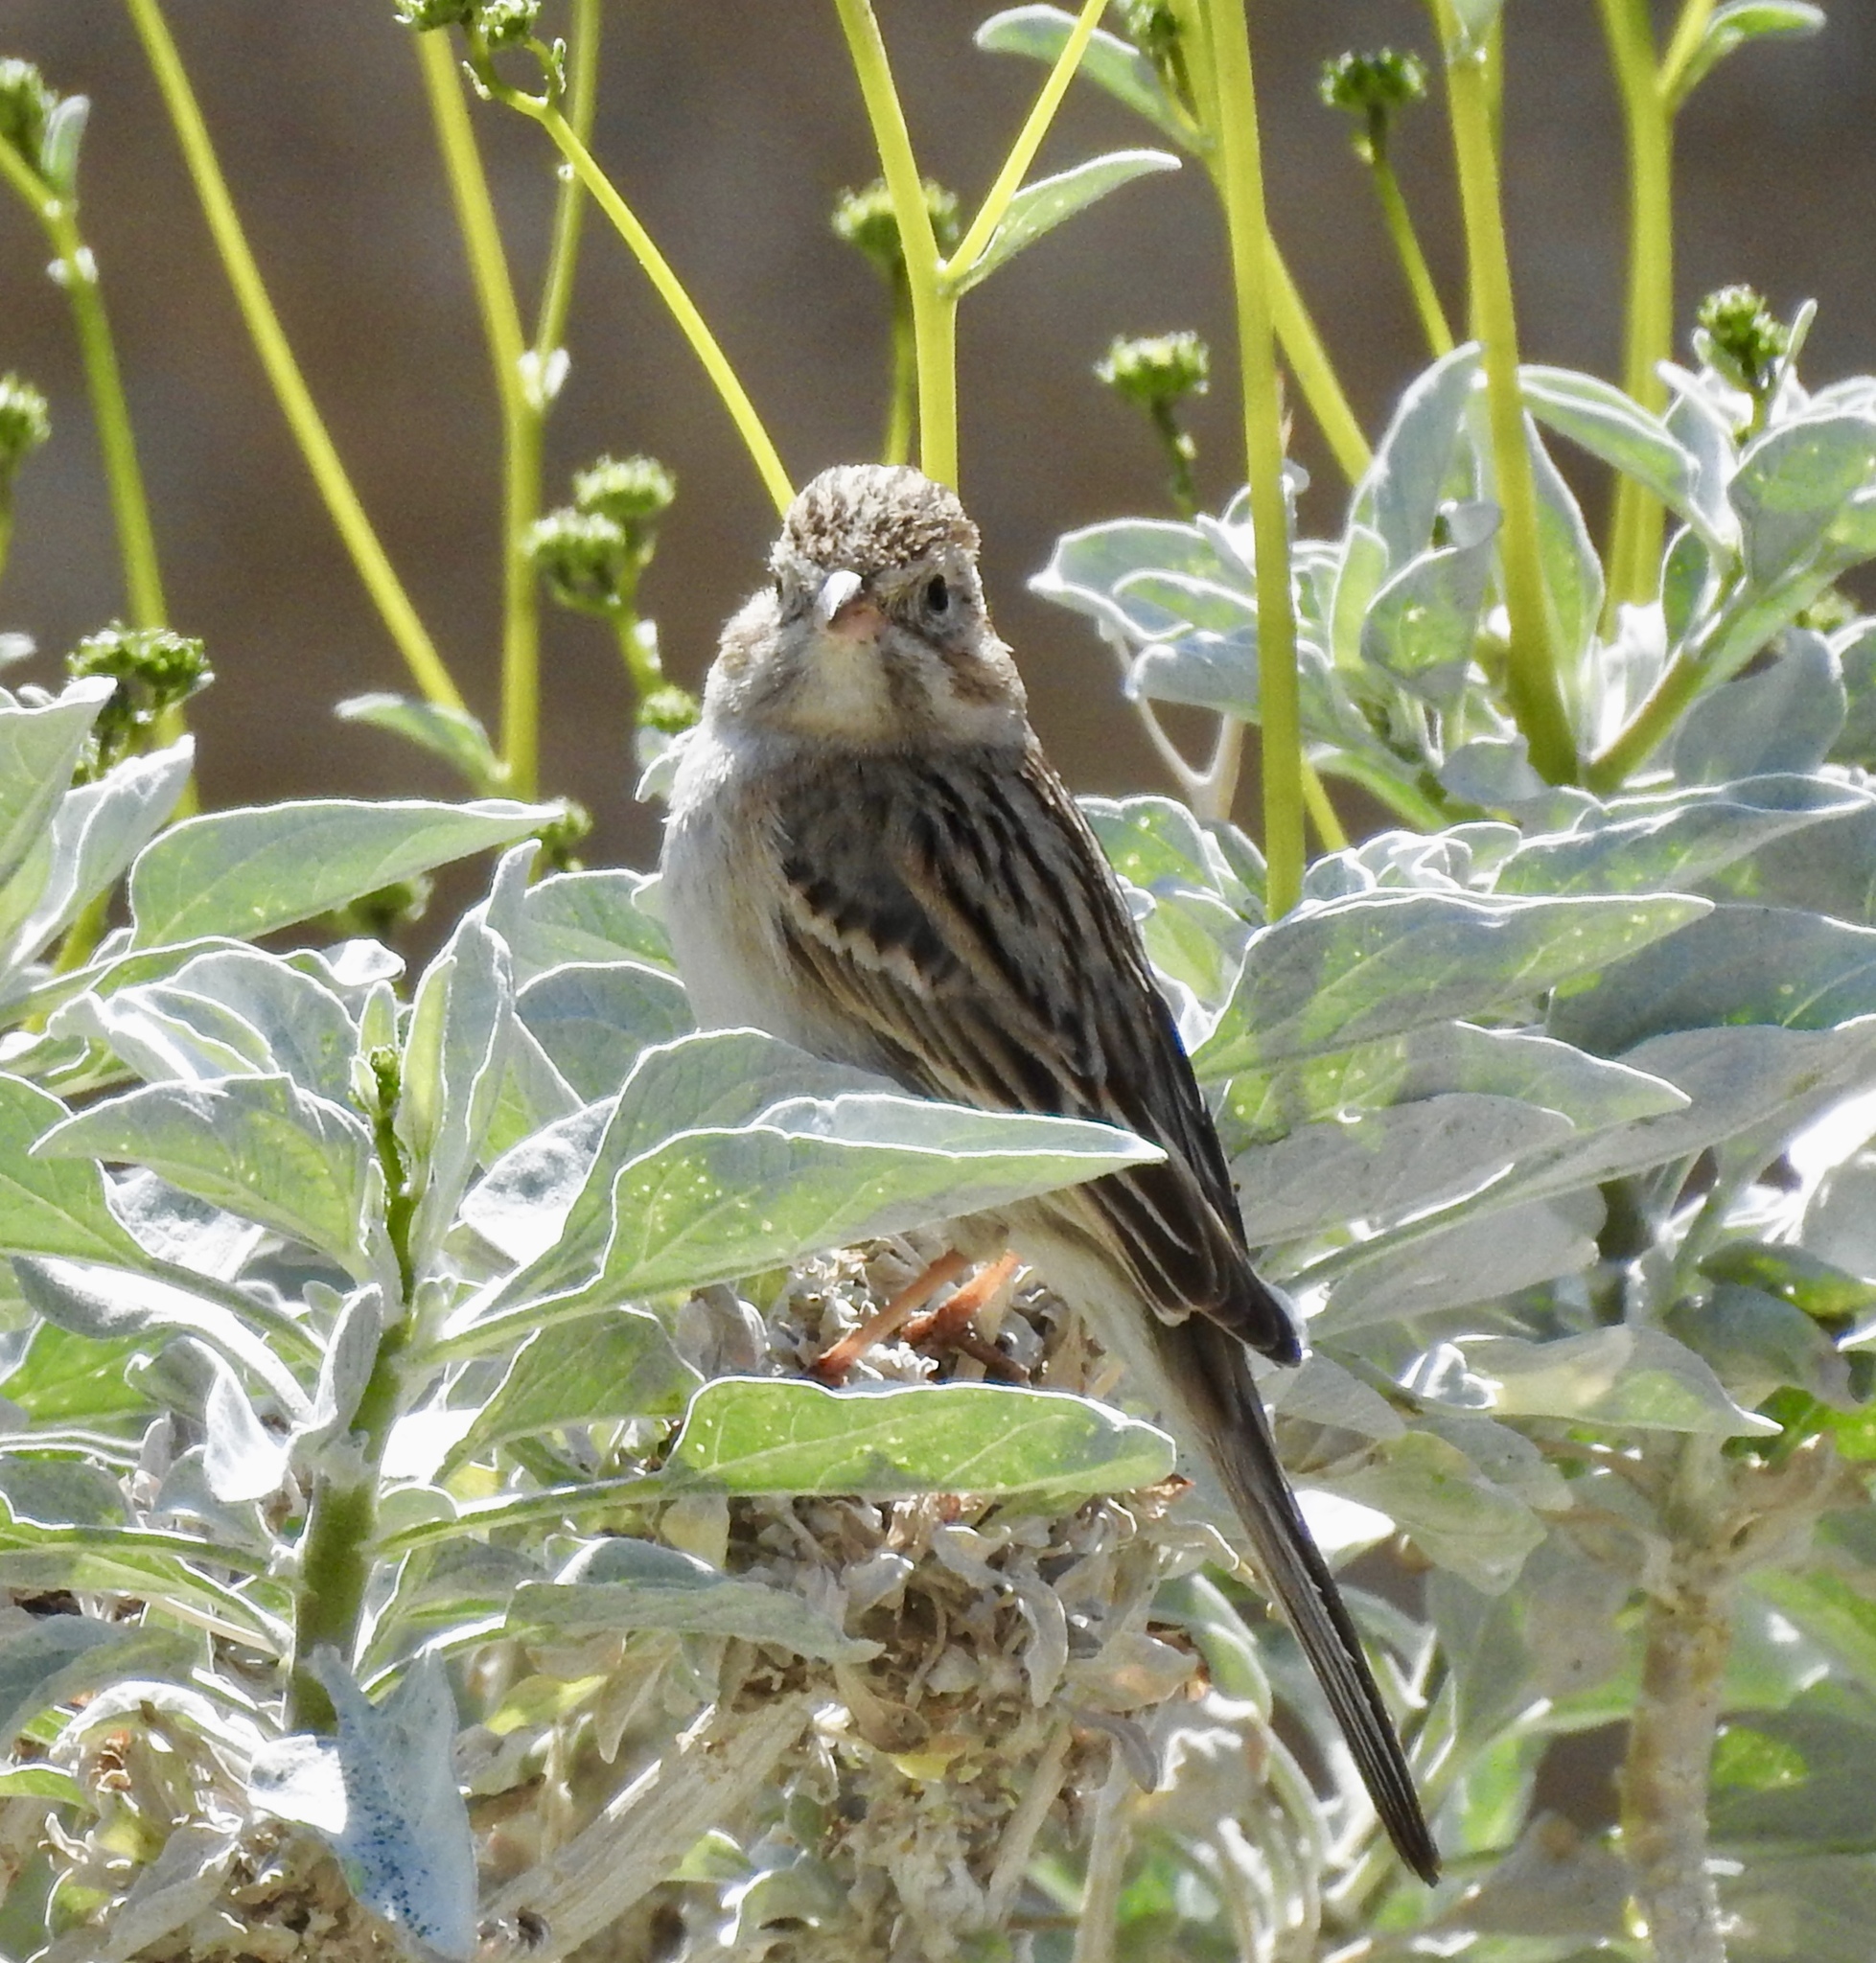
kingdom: Animalia
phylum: Chordata
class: Aves
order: Passeriformes
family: Passerellidae
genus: Spizella
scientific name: Spizella breweri
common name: Brewer's sparrow
